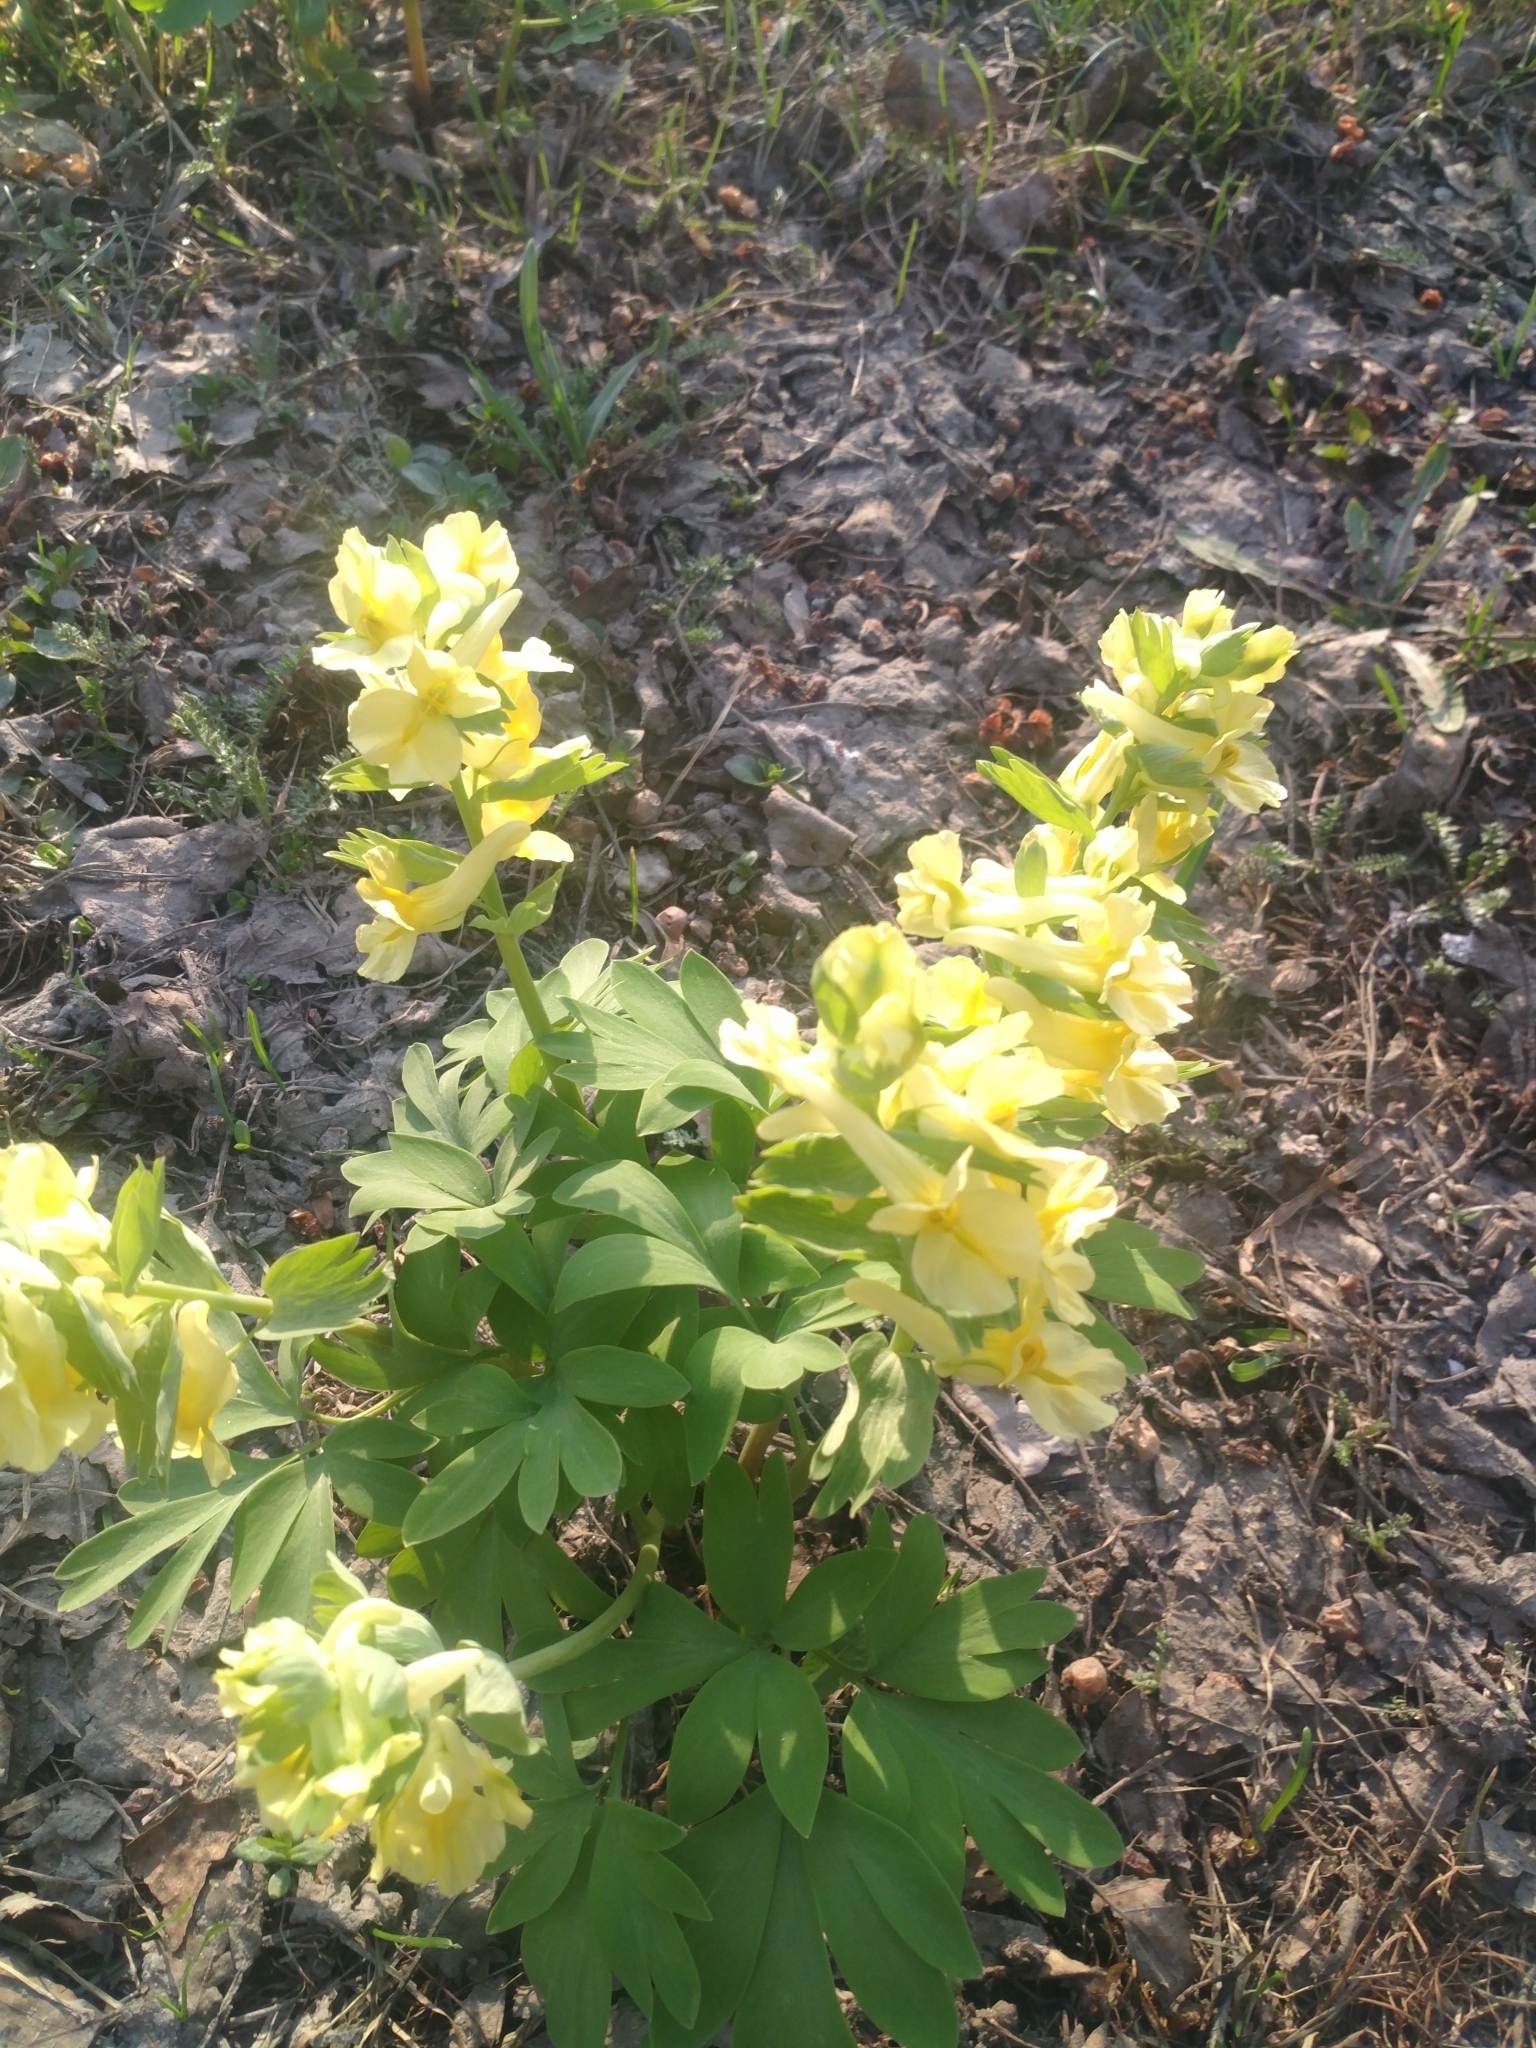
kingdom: Plantae
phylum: Tracheophyta
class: Magnoliopsida
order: Ranunculales
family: Papaveraceae
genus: Corydalis
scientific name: Corydalis bracteata
